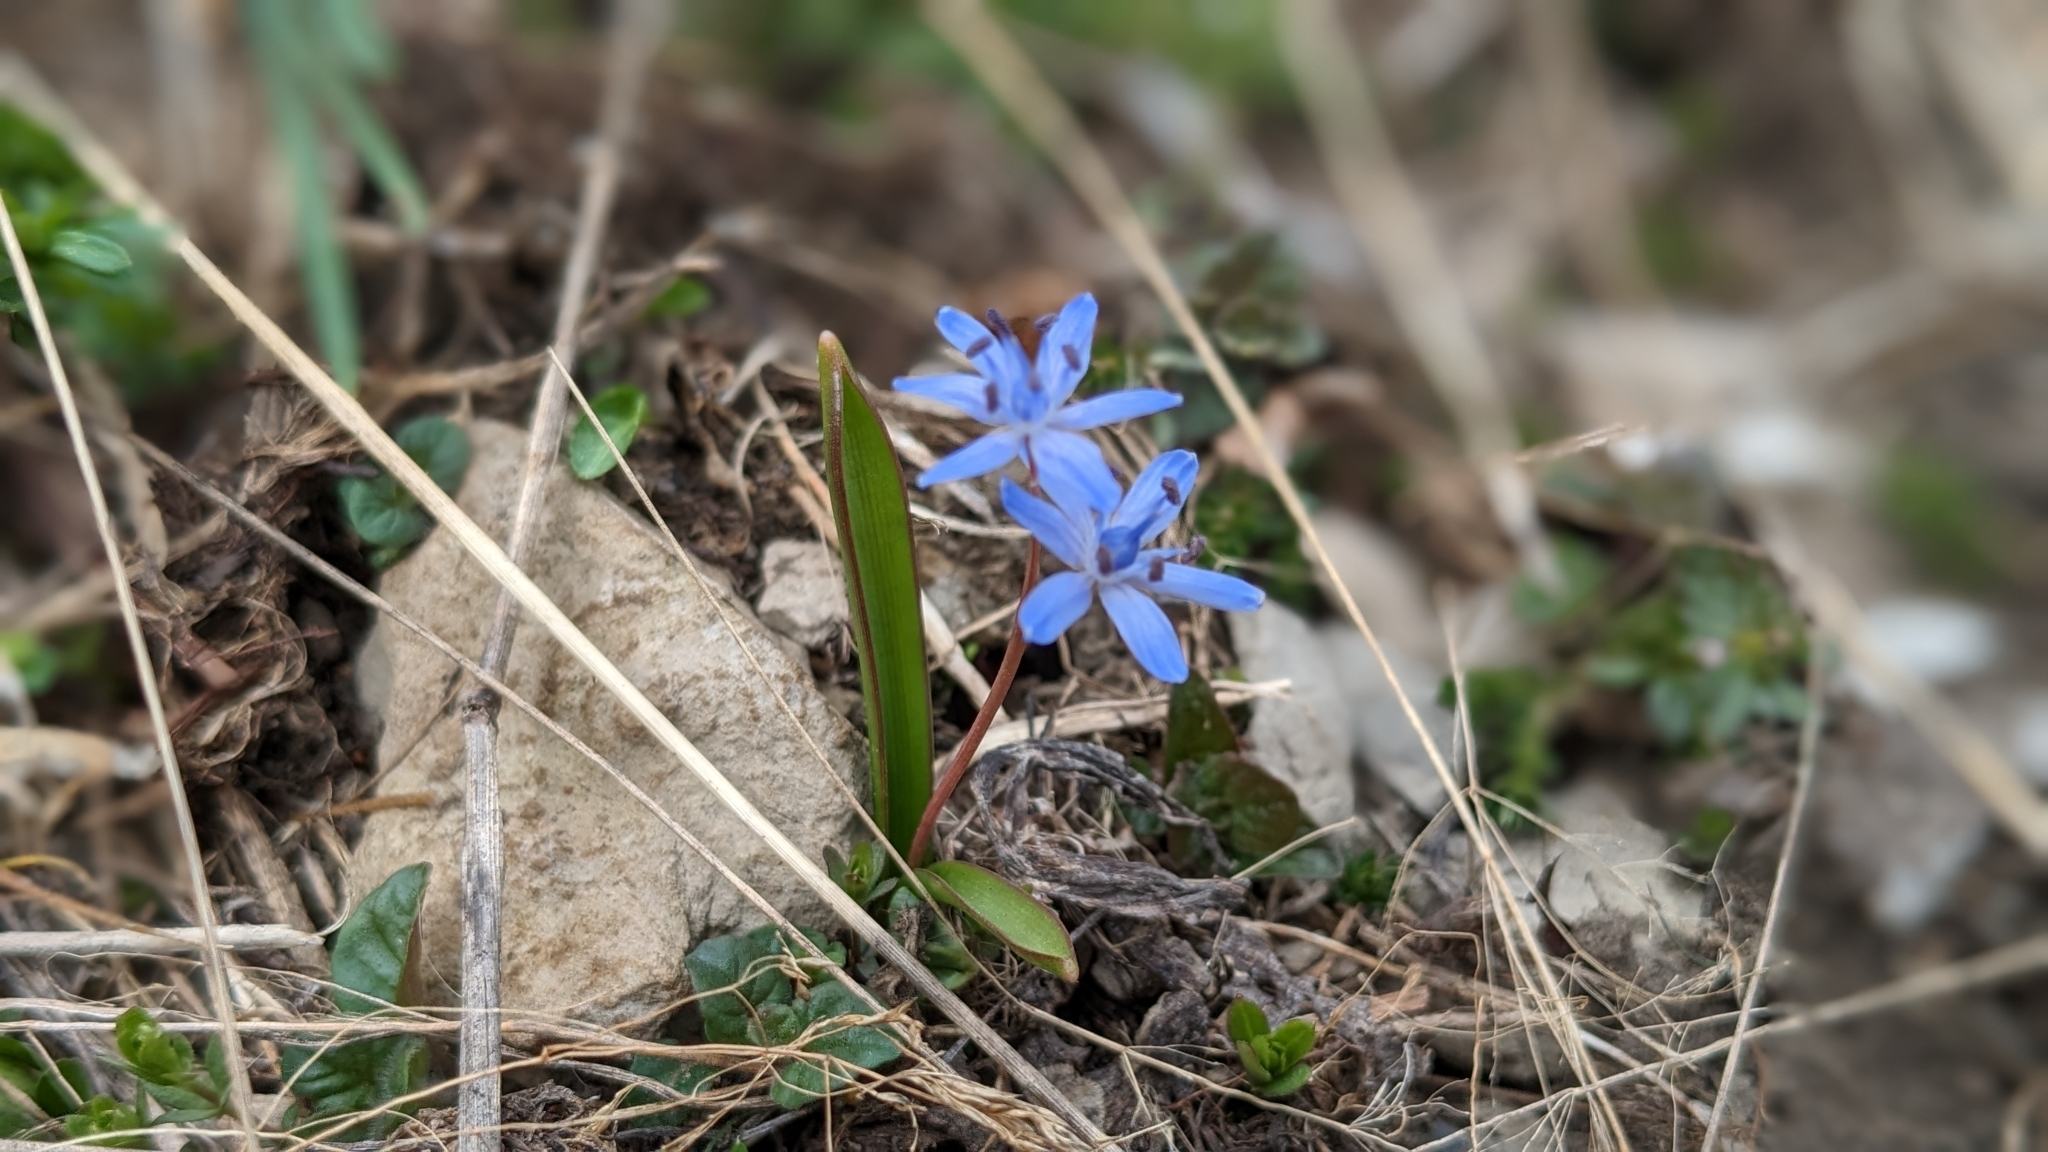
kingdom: Plantae
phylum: Tracheophyta
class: Liliopsida
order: Asparagales
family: Asparagaceae
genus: Scilla
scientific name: Scilla bifolia
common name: Alpine squill
